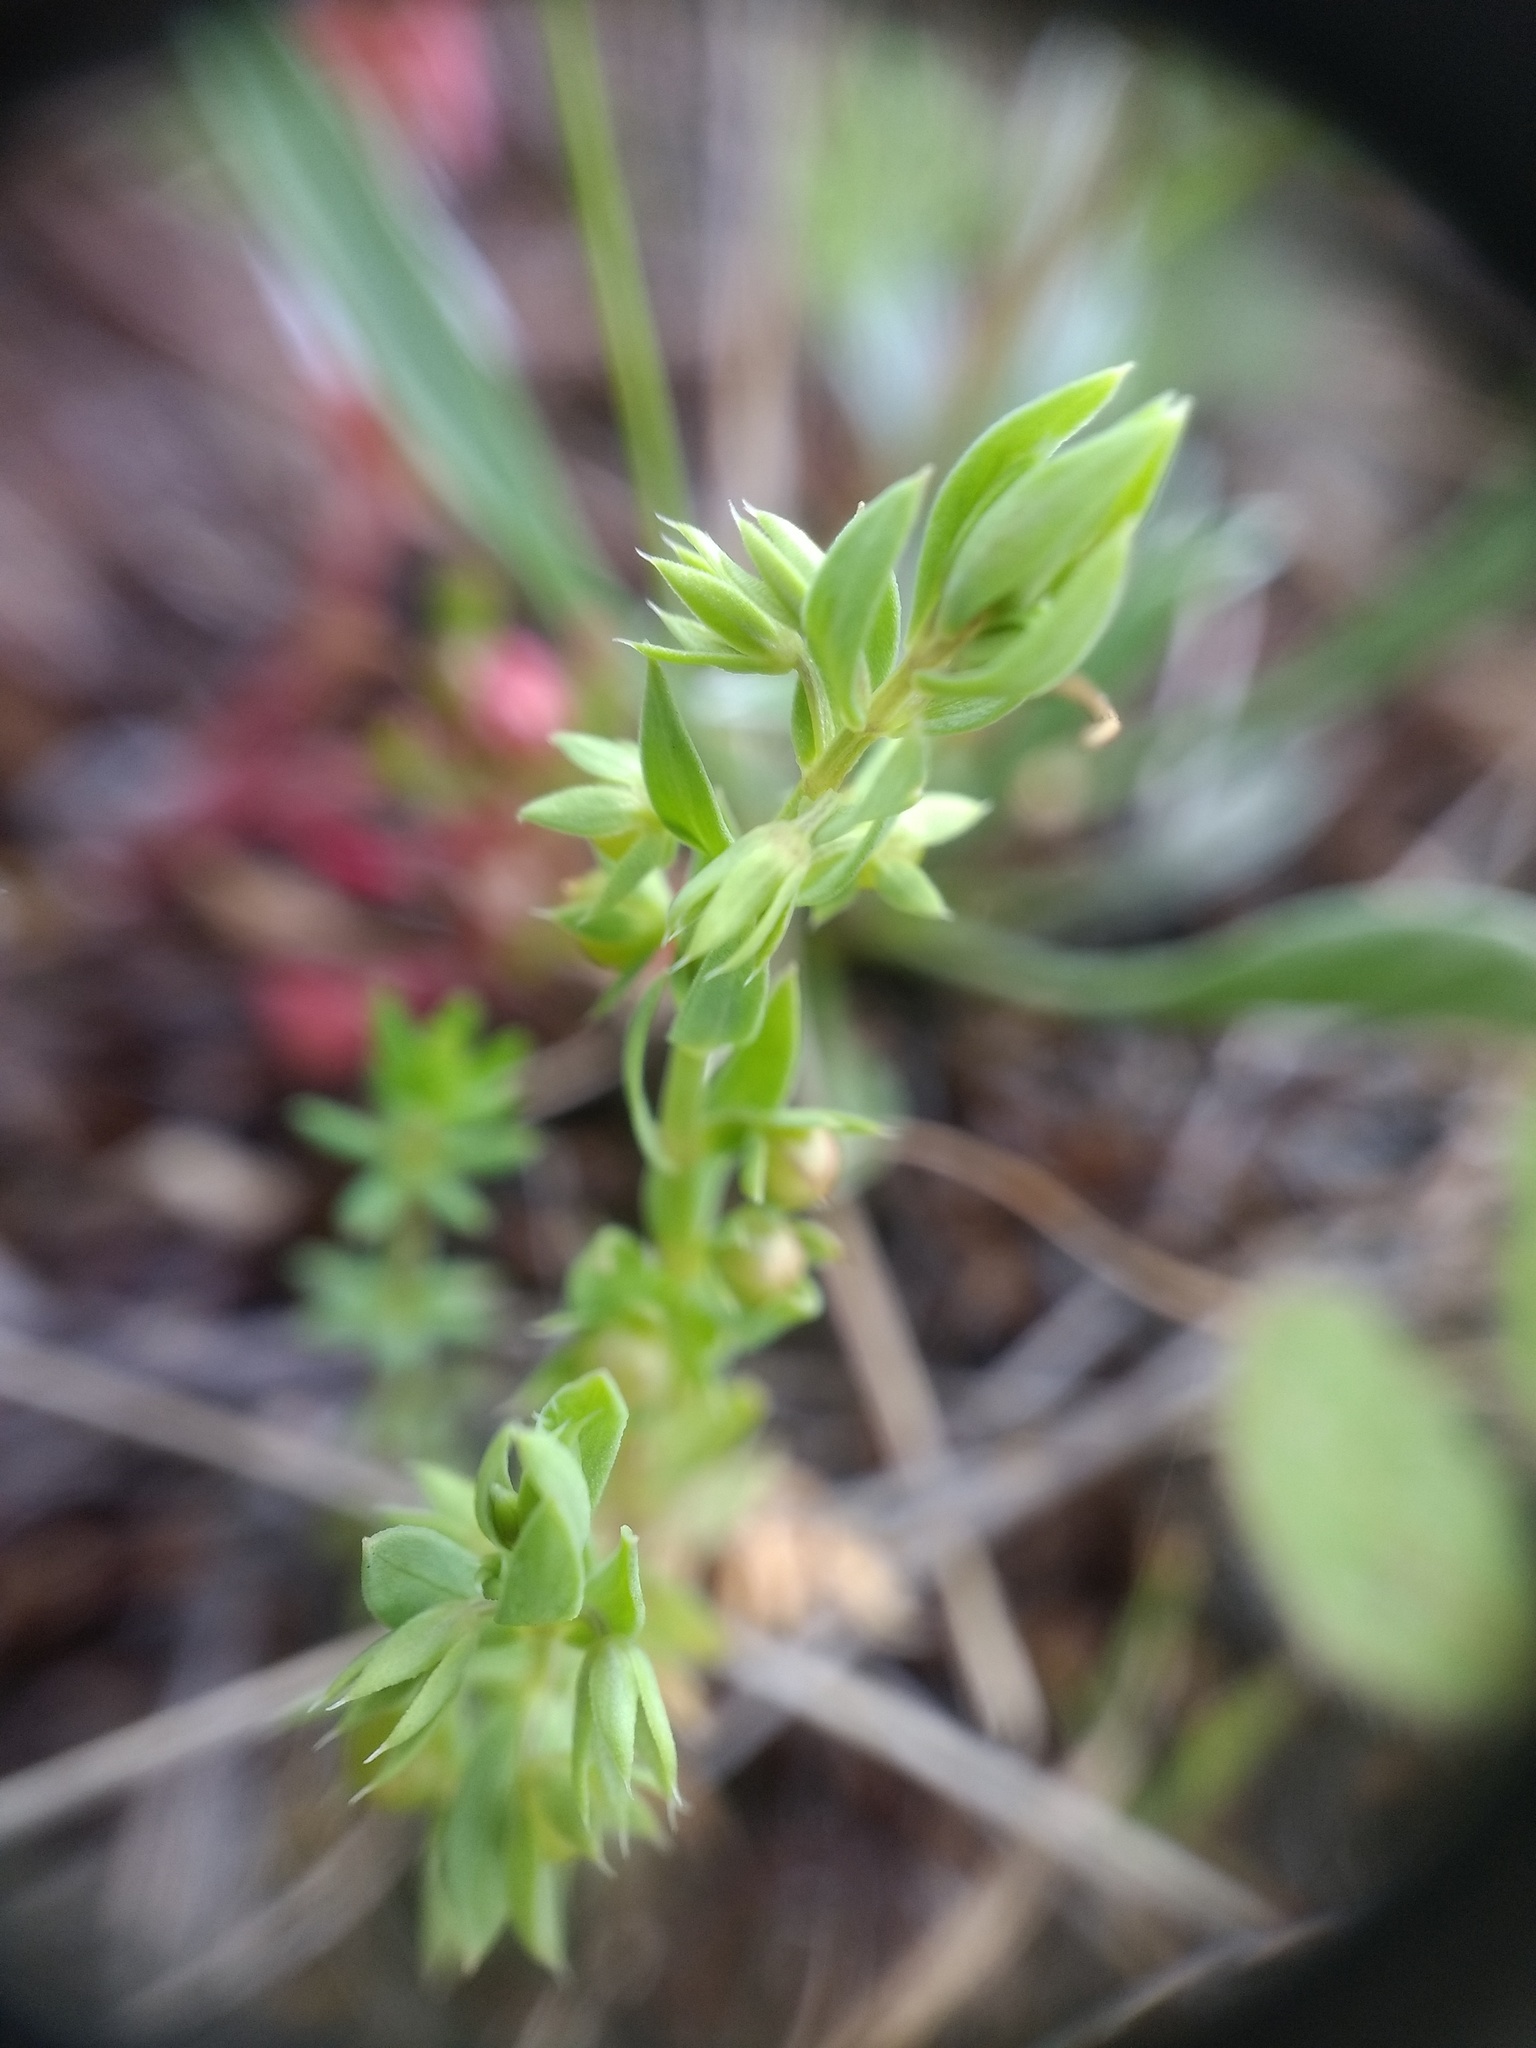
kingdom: Plantae
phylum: Tracheophyta
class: Magnoliopsida
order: Ericales
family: Primulaceae
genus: Lysimachia
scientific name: Lysimachia linum-stellatum
